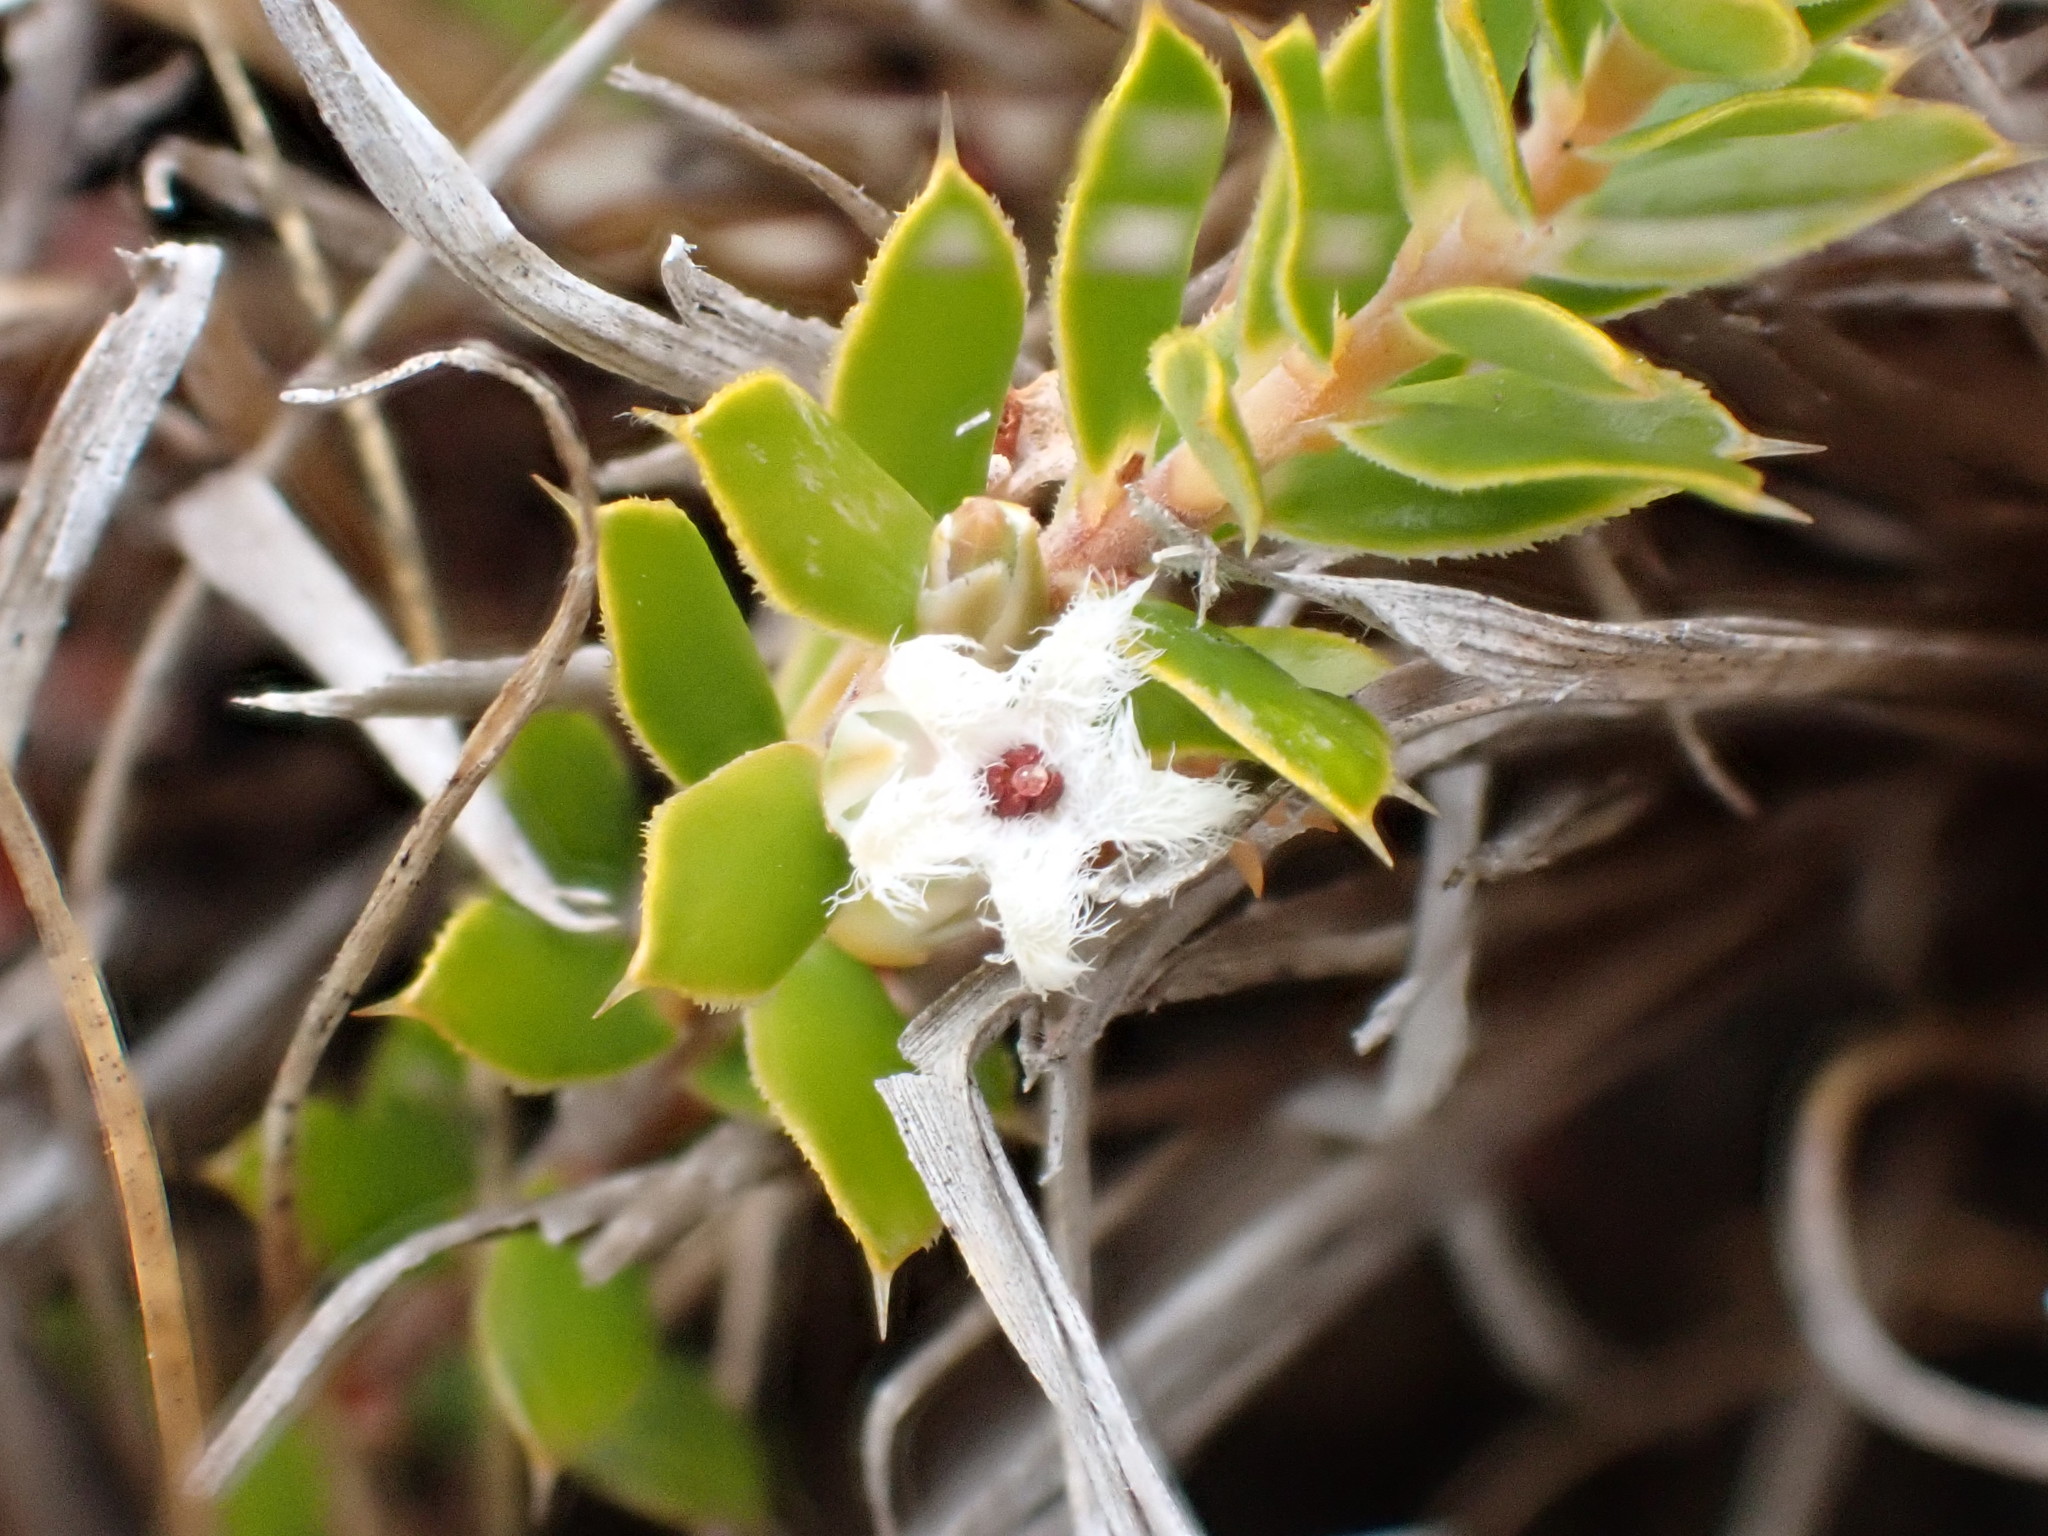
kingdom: Plantae
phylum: Tracheophyta
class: Magnoliopsida
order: Ericales
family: Ericaceae
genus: Styphelia
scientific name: Styphelia nesophila
